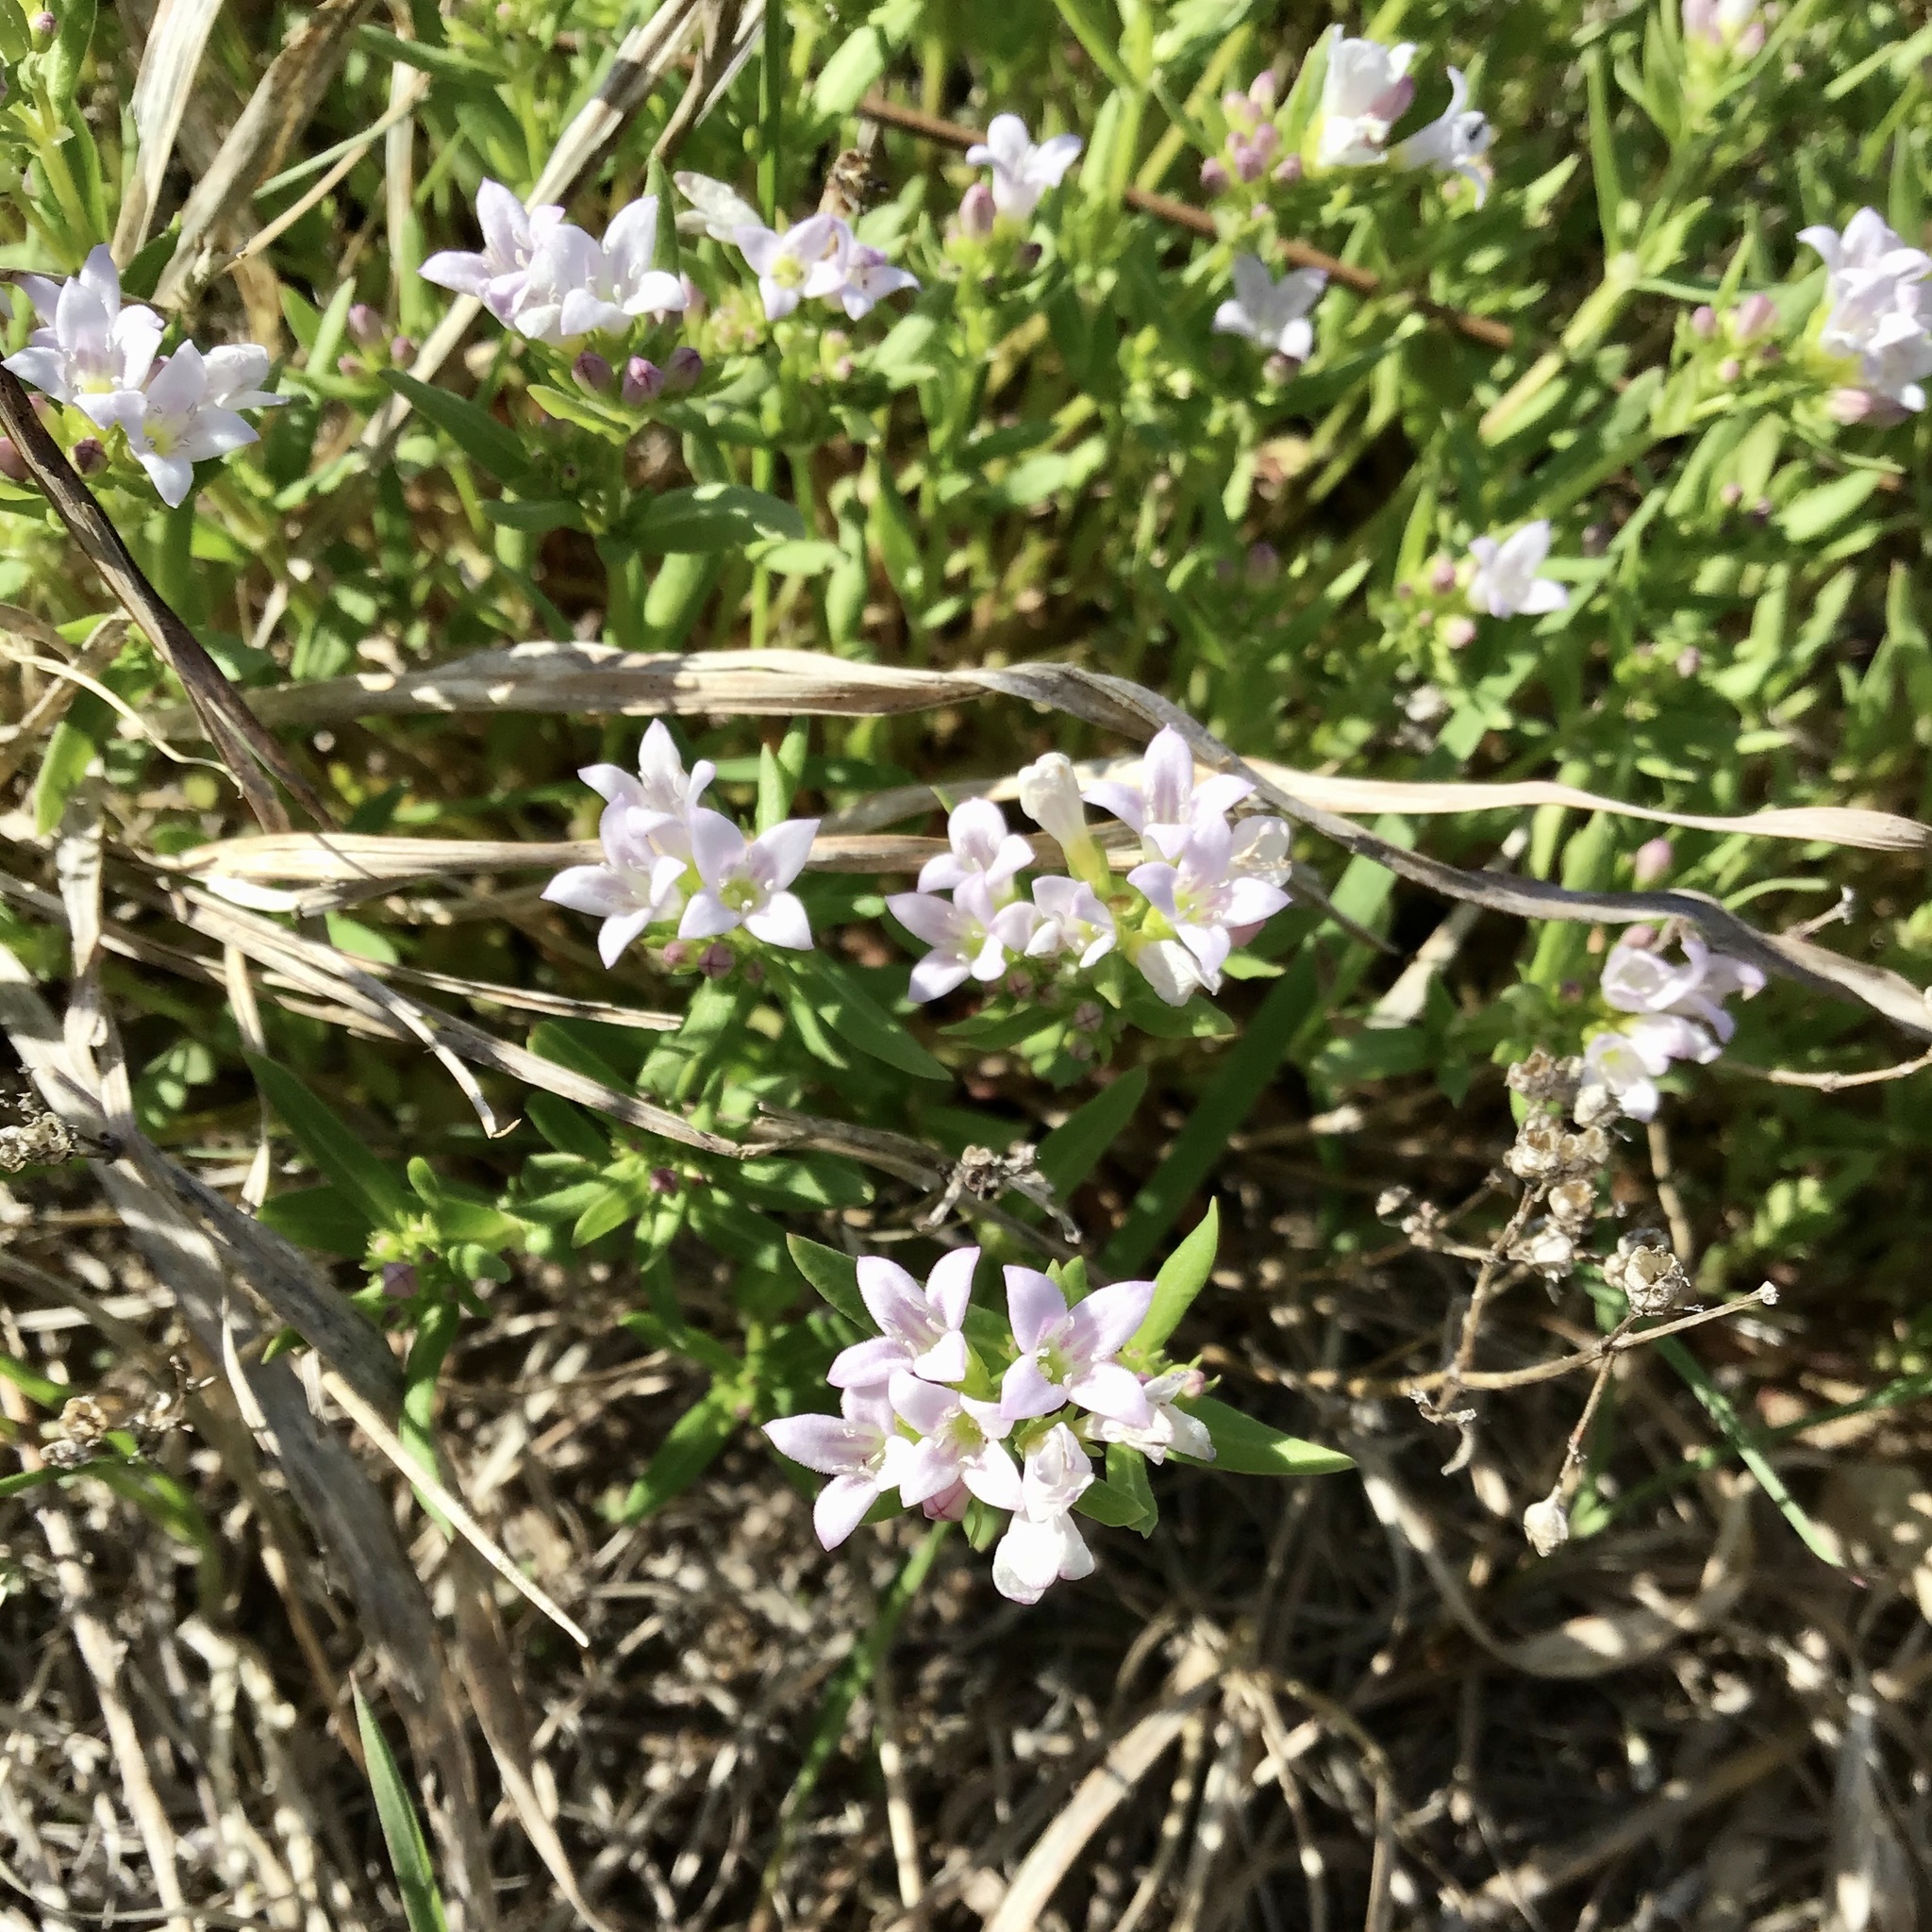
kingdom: Plantae
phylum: Tracheophyta
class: Magnoliopsida
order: Gentianales
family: Rubiaceae
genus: Houstonia
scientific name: Houstonia longifolia
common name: Long-leaved bluets
